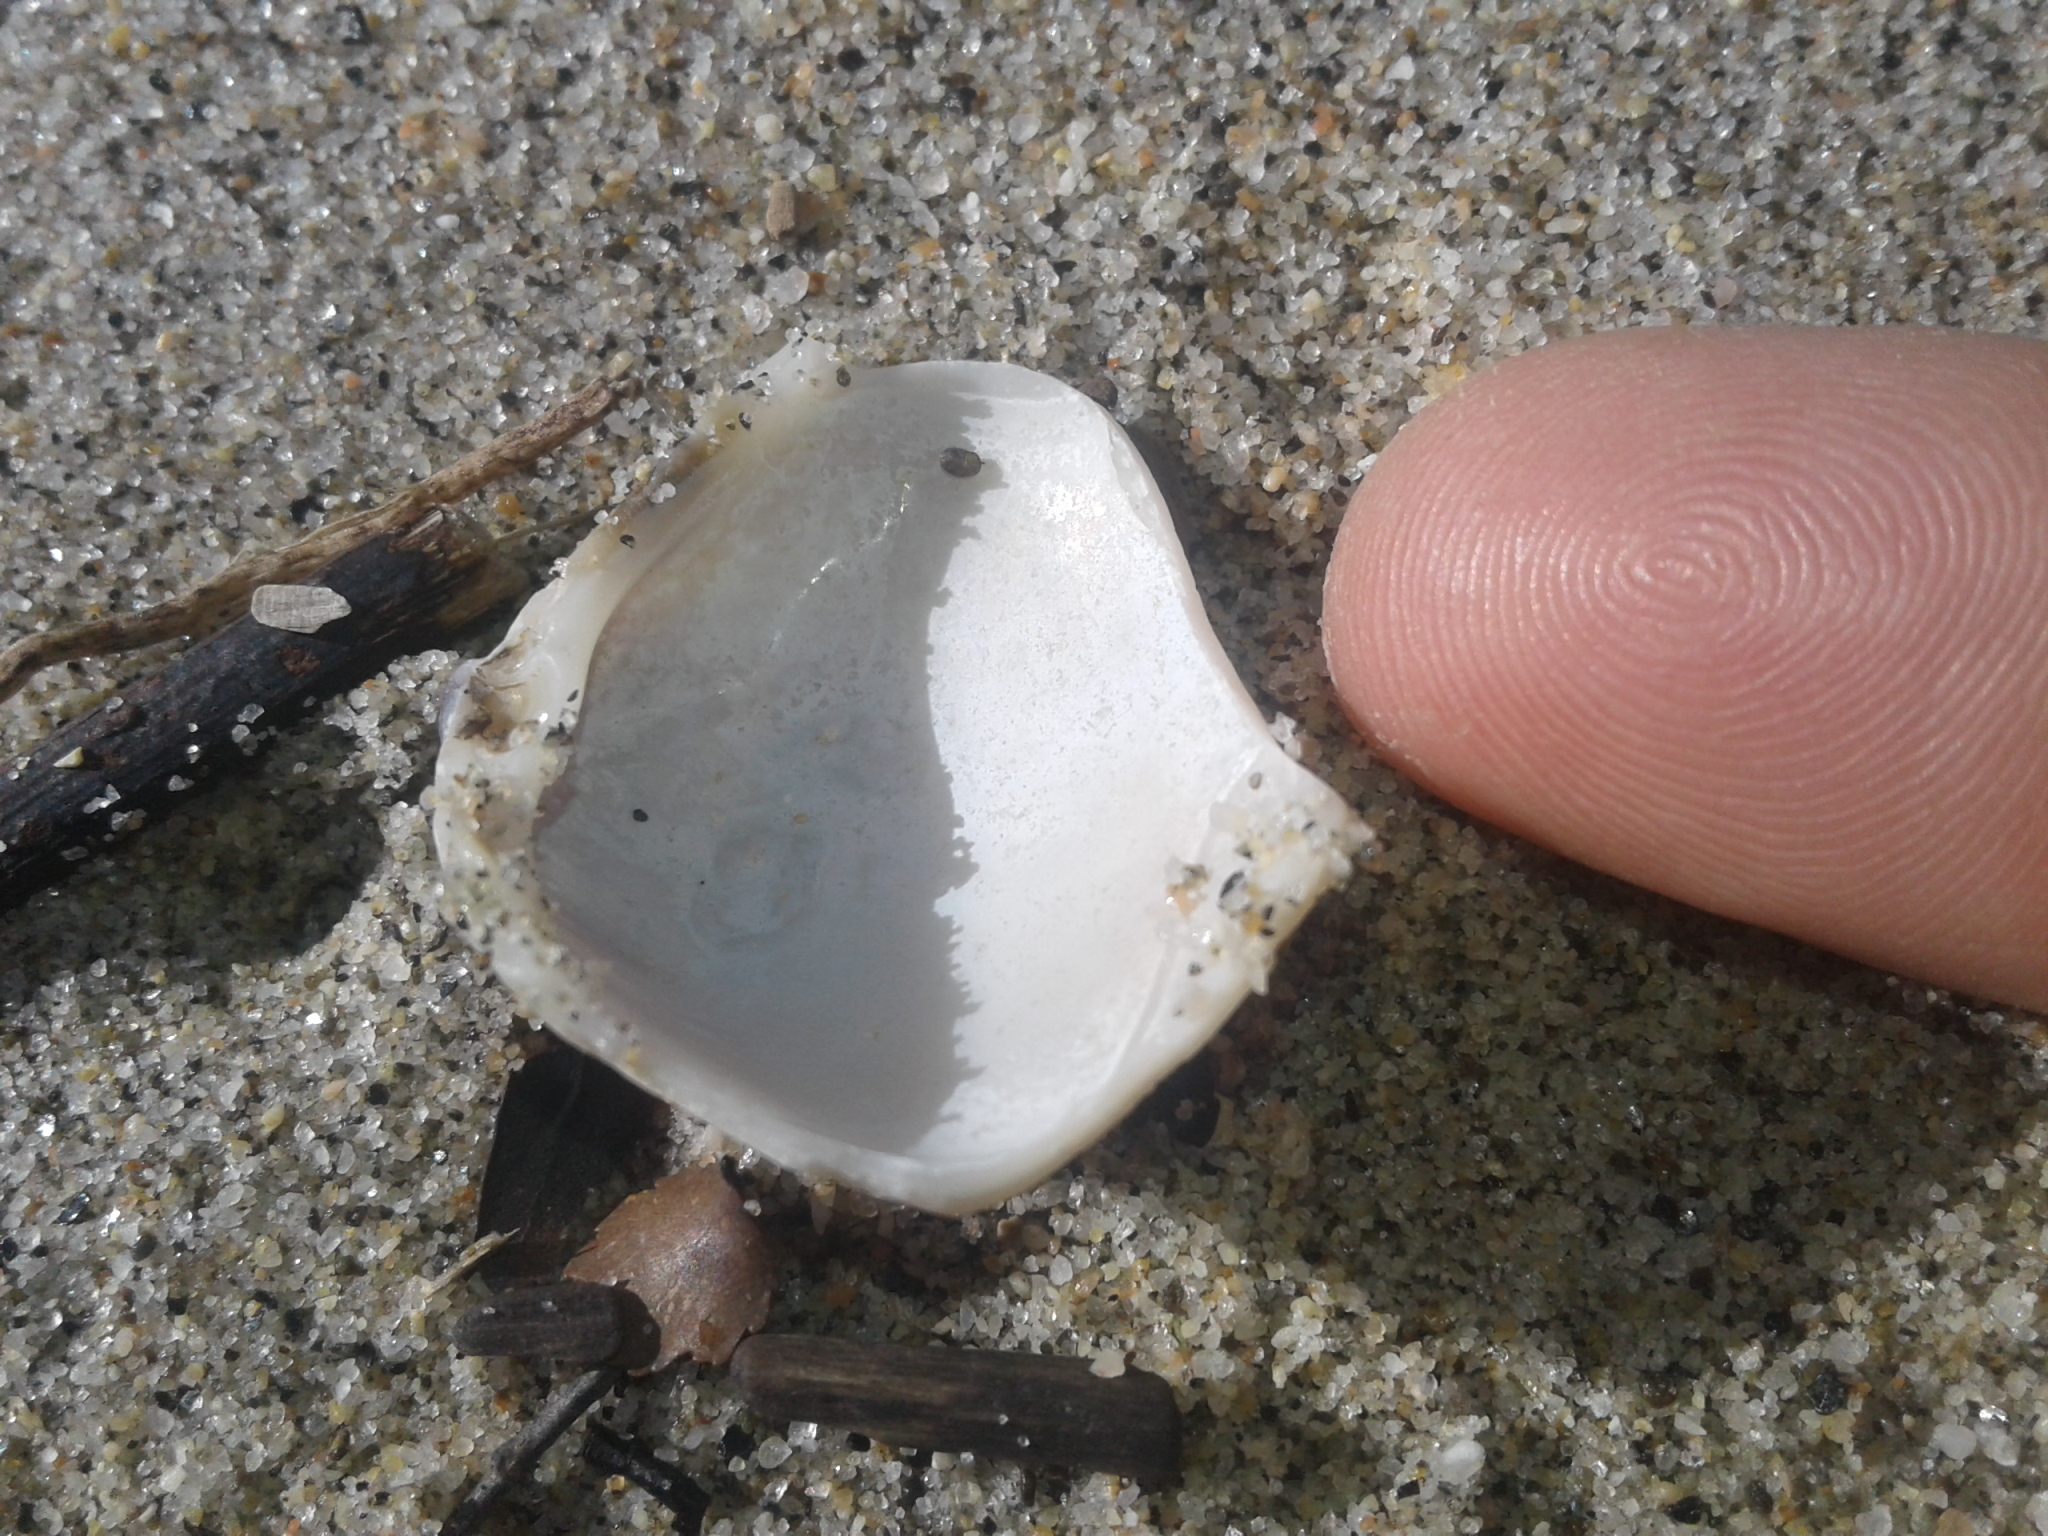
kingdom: Animalia
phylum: Mollusca
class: Bivalvia
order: Venerida
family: Mactridae
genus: Crassula
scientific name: Crassula aequilatera
